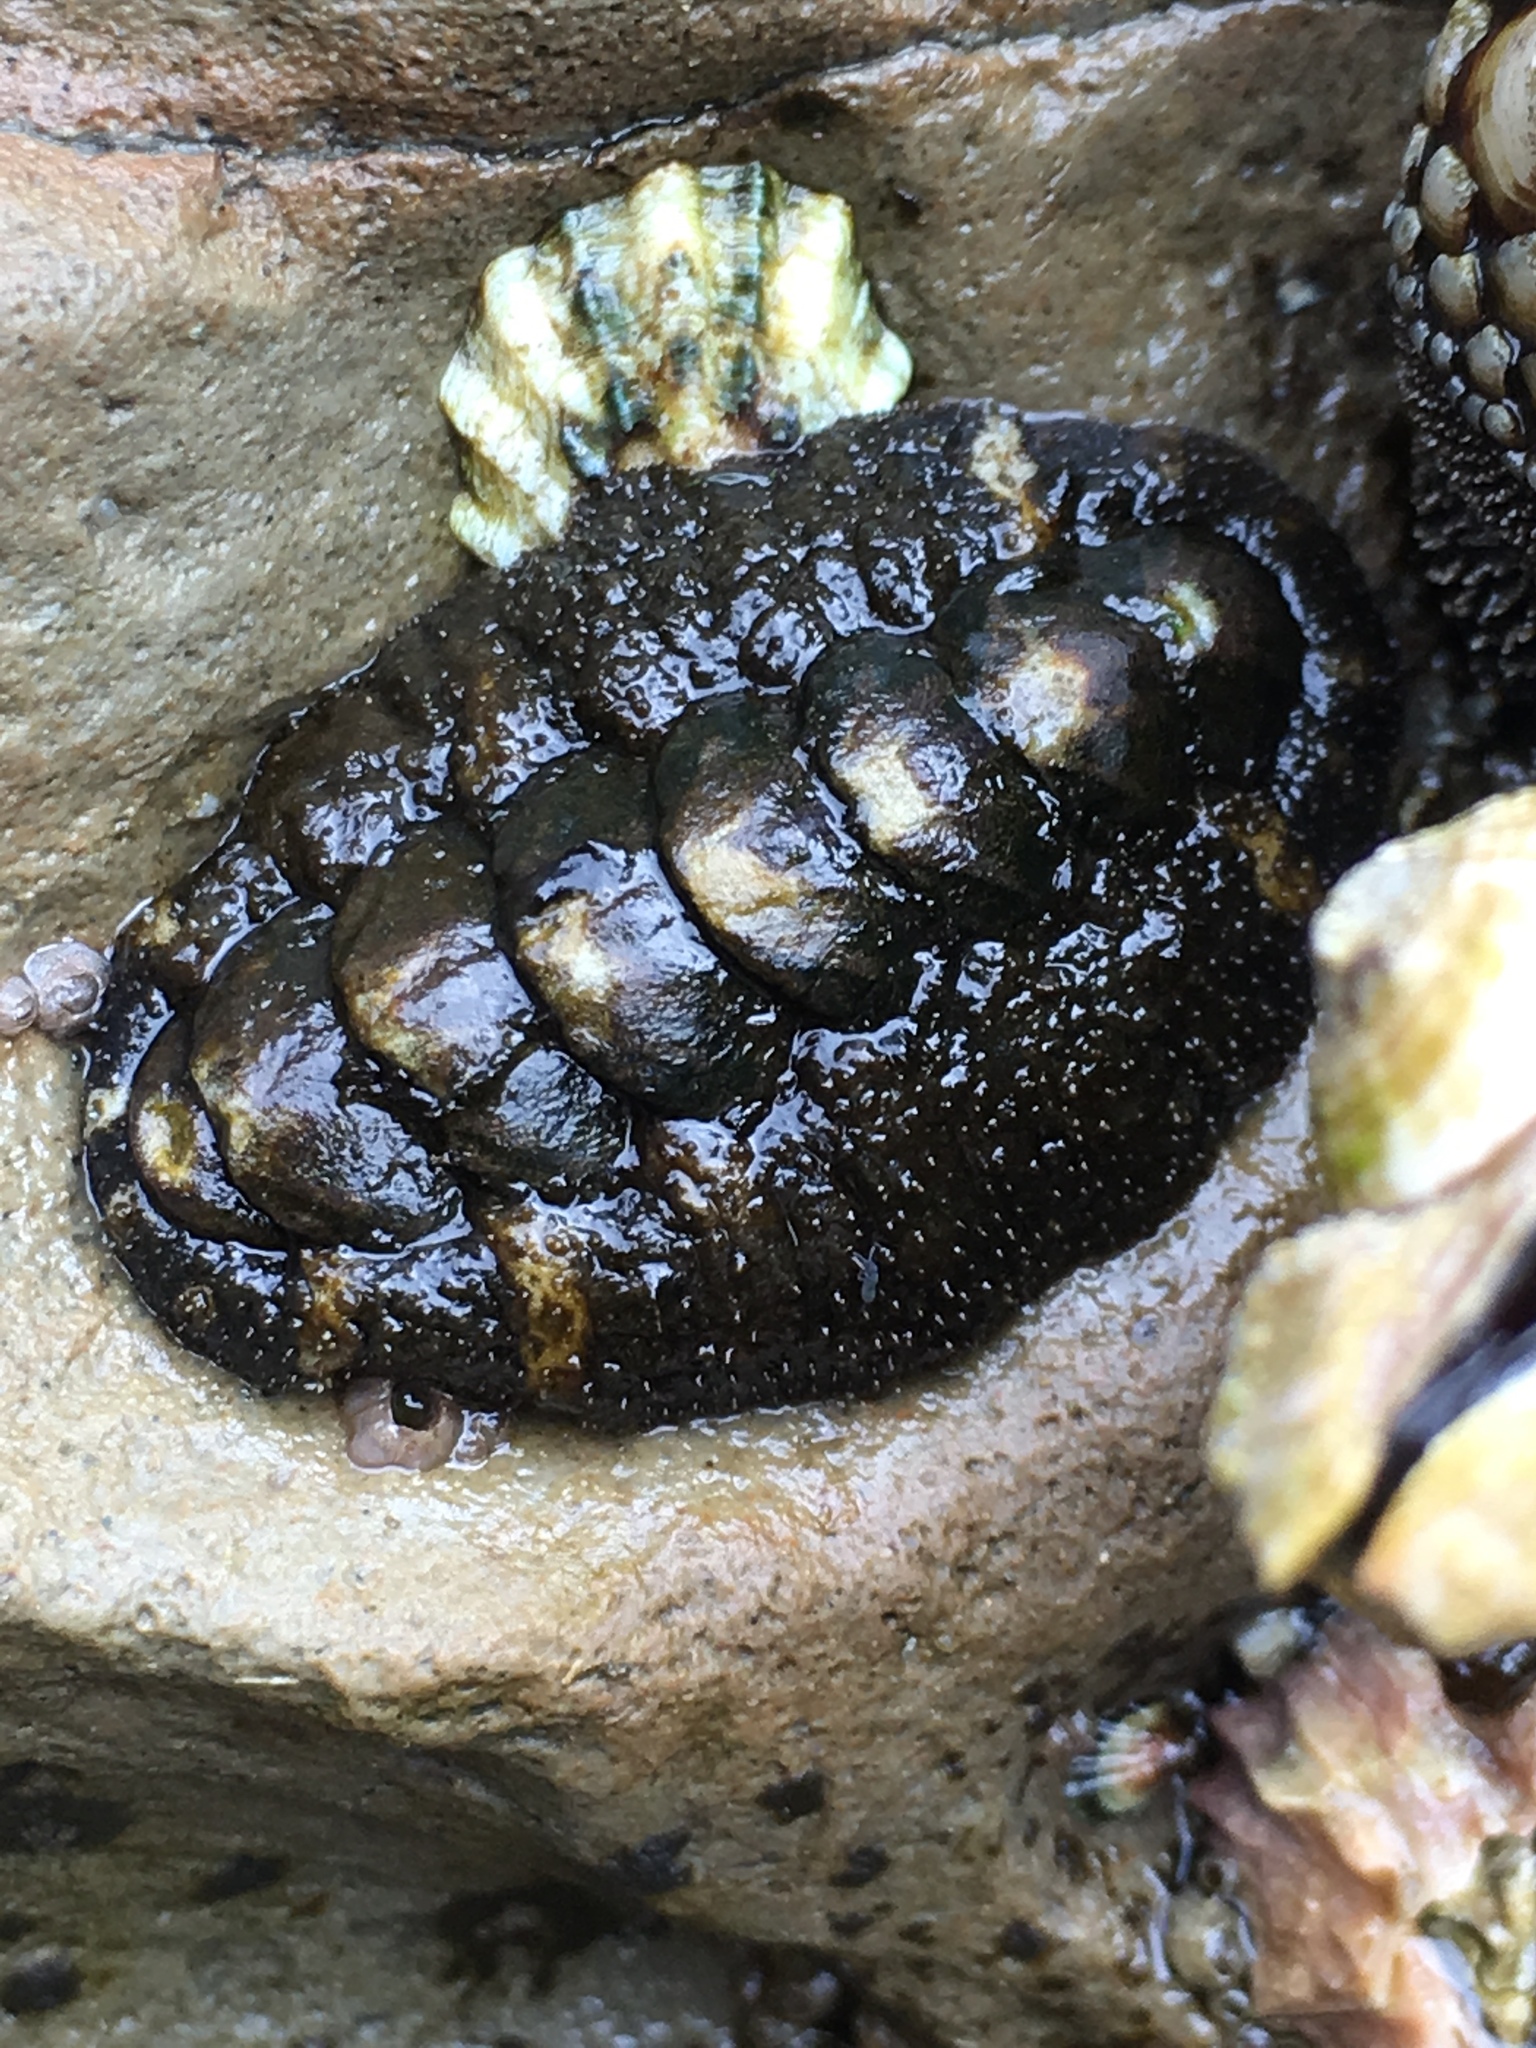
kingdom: Animalia
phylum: Mollusca
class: Polyplacophora
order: Chitonida
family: Tonicellidae
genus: Nuttallina
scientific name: Nuttallina californica
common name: California nuttall chiton
